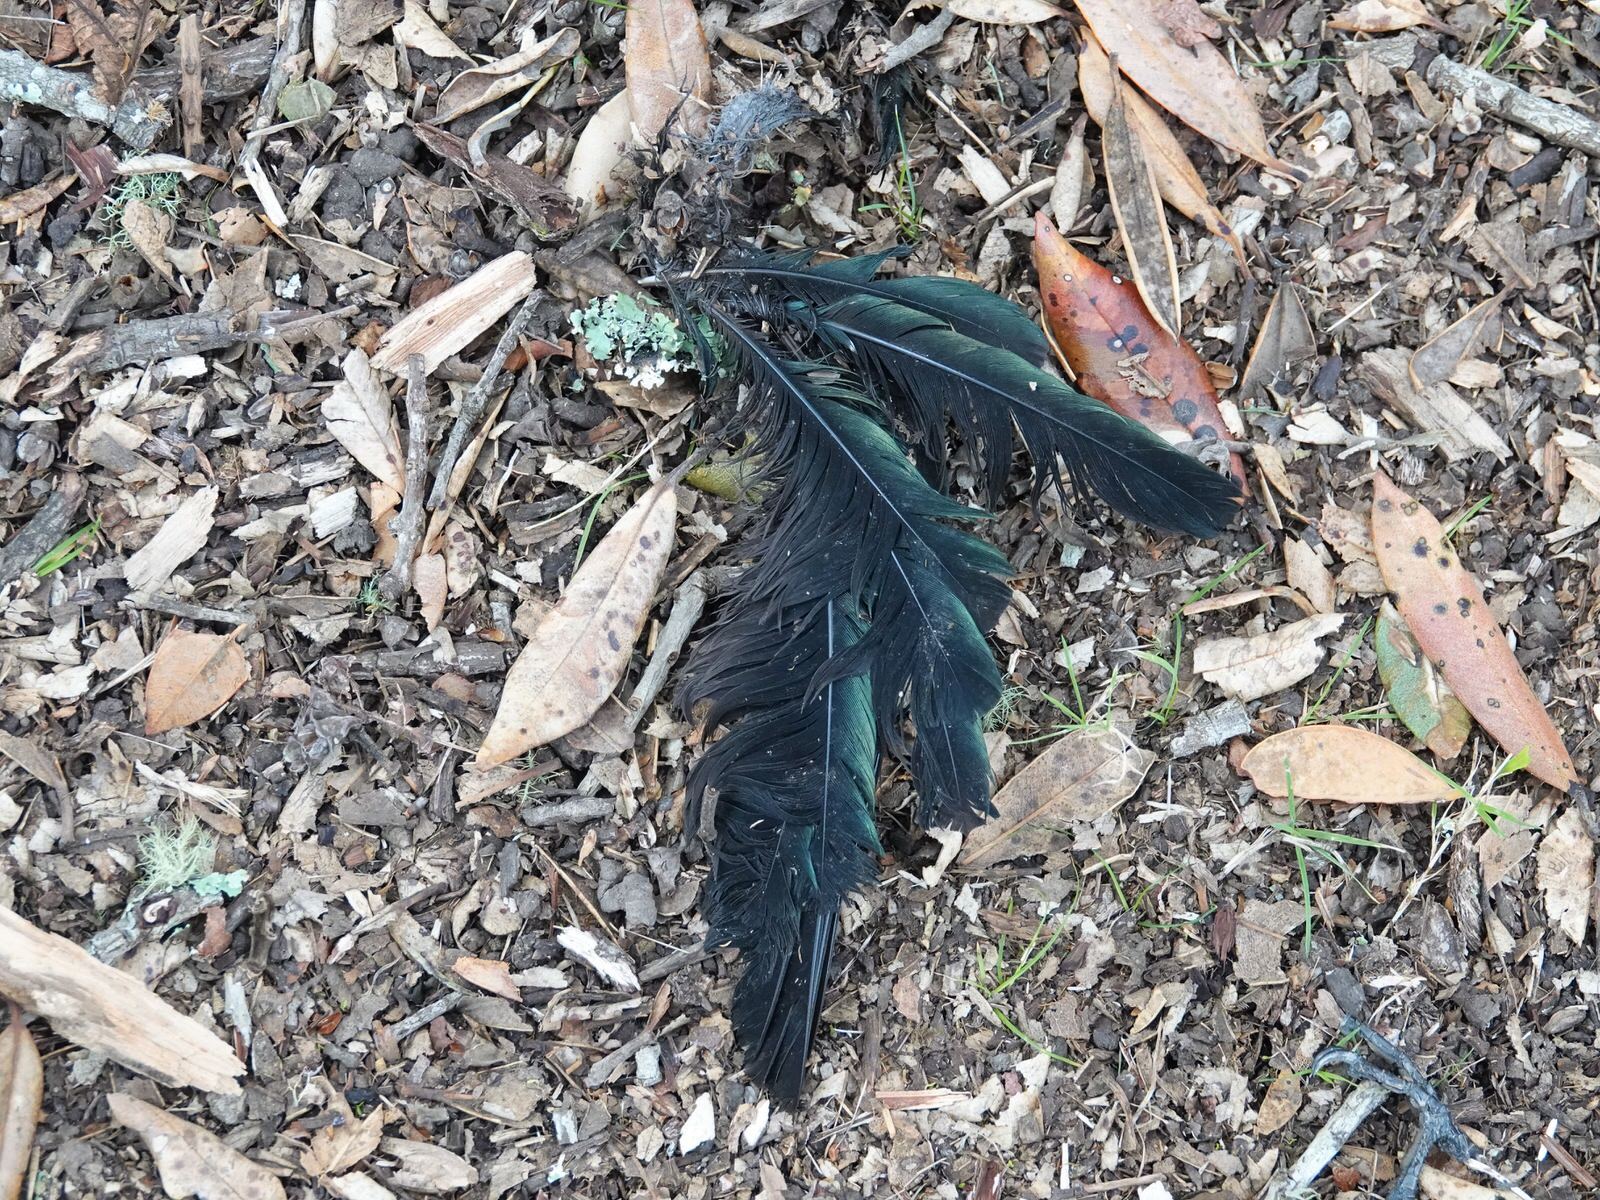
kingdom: Animalia
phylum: Chordata
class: Aves
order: Passeriformes
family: Meliphagidae
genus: Prosthemadera
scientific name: Prosthemadera novaeseelandiae
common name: Tui
